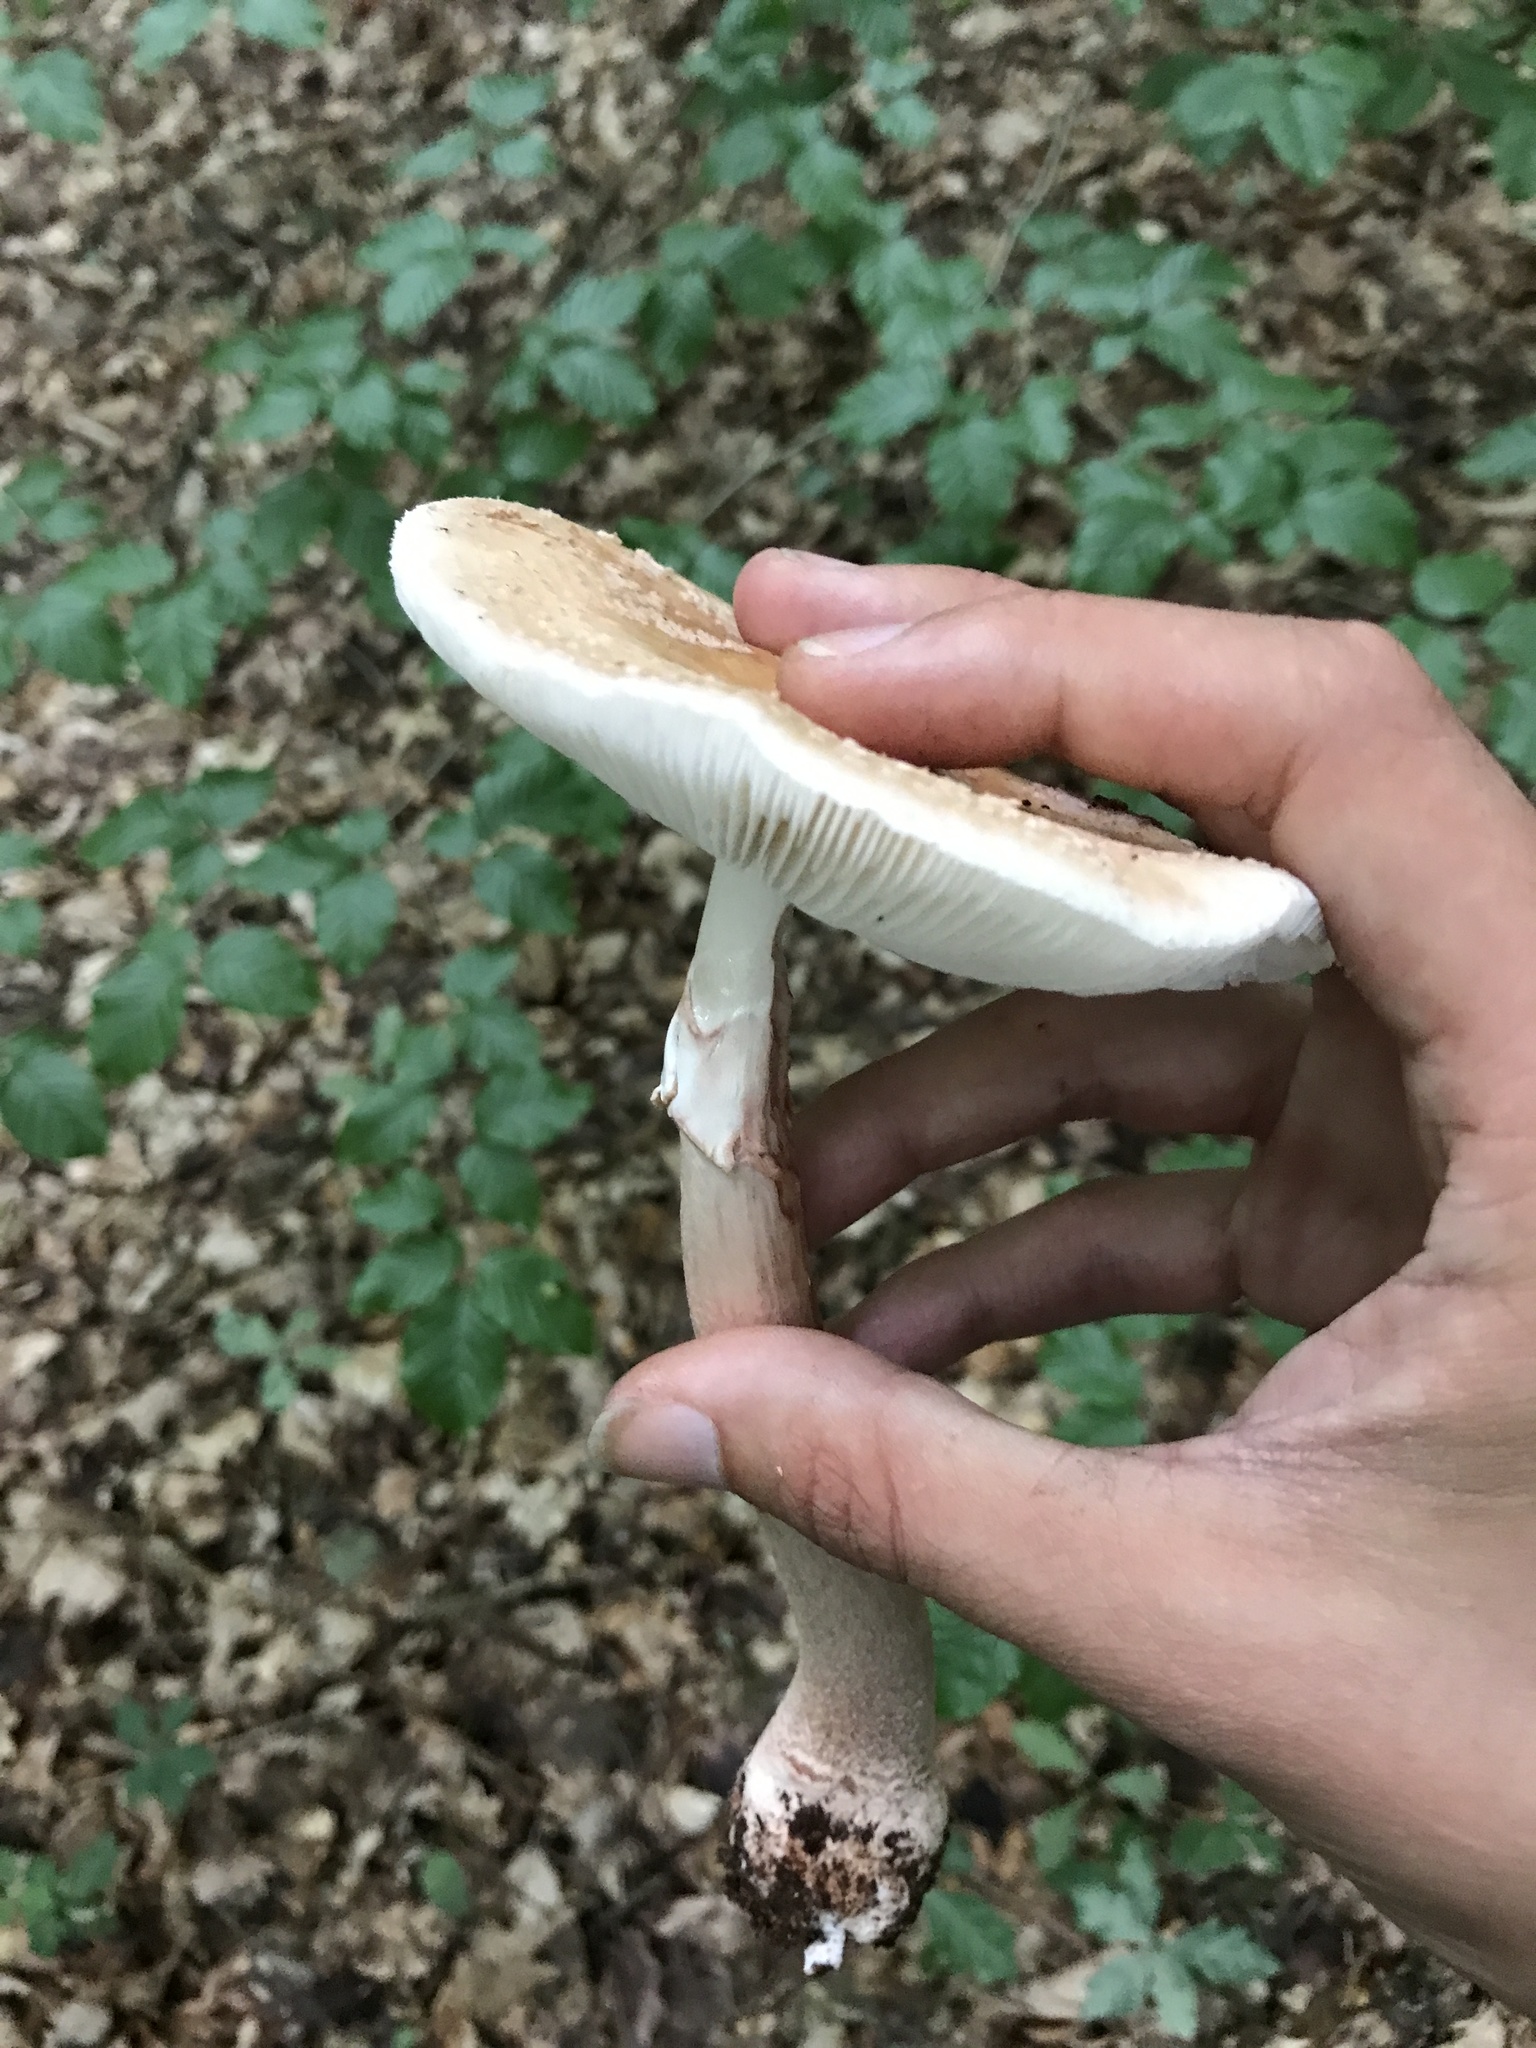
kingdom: Fungi
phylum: Basidiomycota
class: Agaricomycetes
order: Agaricales
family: Amanitaceae
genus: Amanita
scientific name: Amanita rubescens
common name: Blusher
